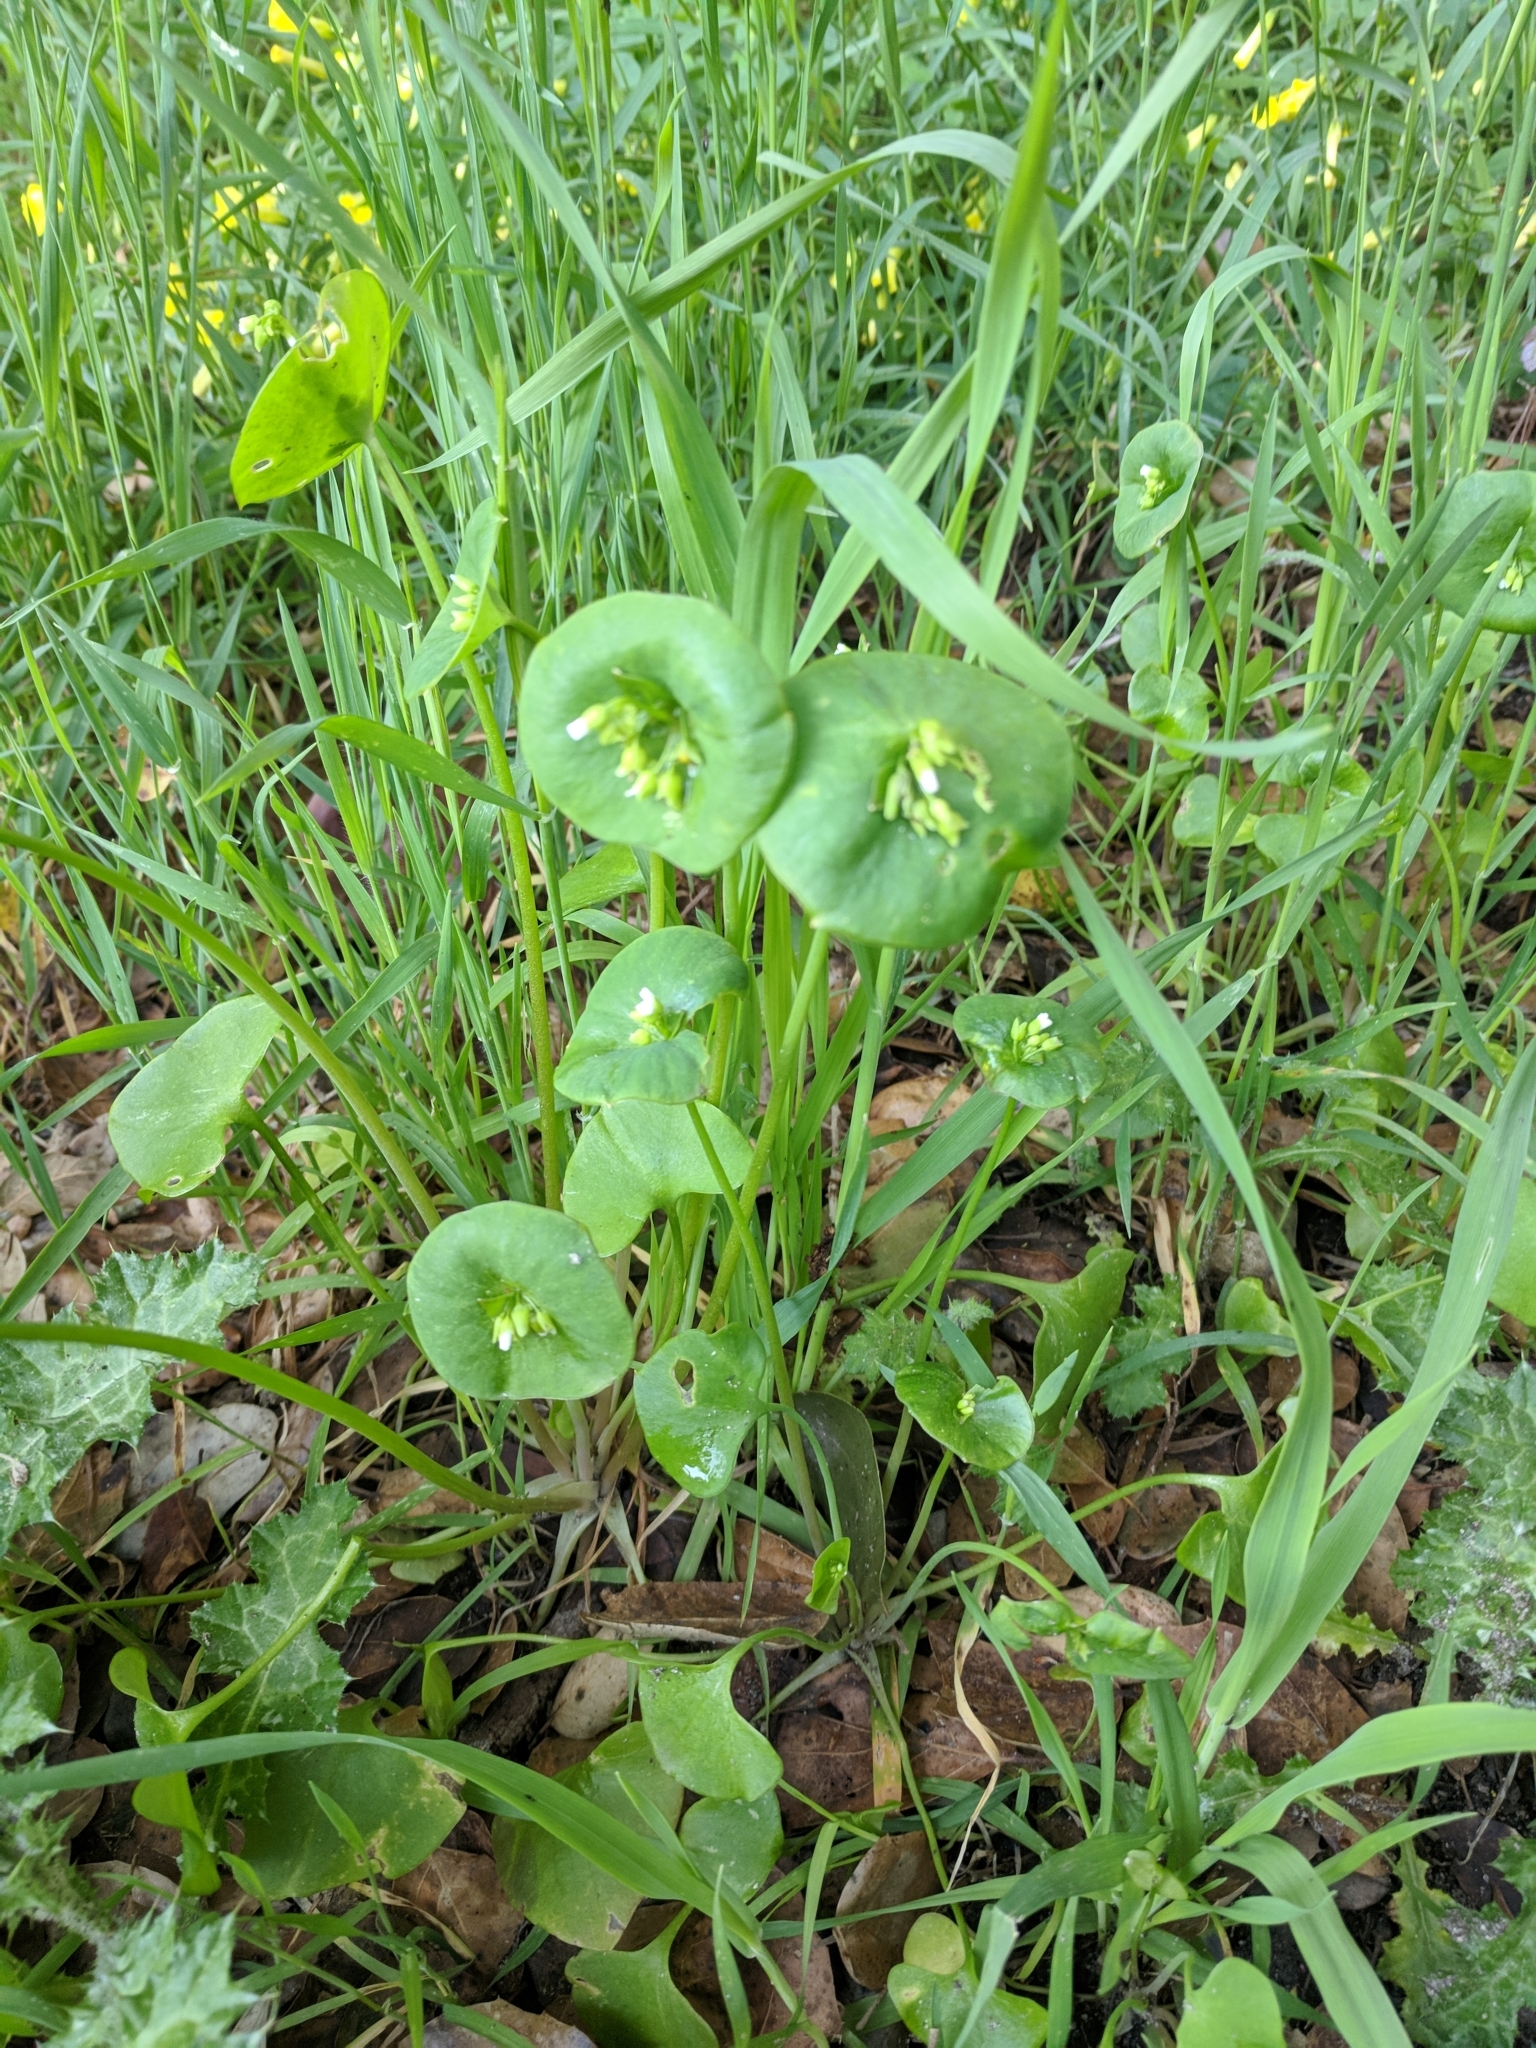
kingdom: Plantae
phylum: Tracheophyta
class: Magnoliopsida
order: Caryophyllales
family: Montiaceae
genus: Claytonia
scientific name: Claytonia perfoliata
